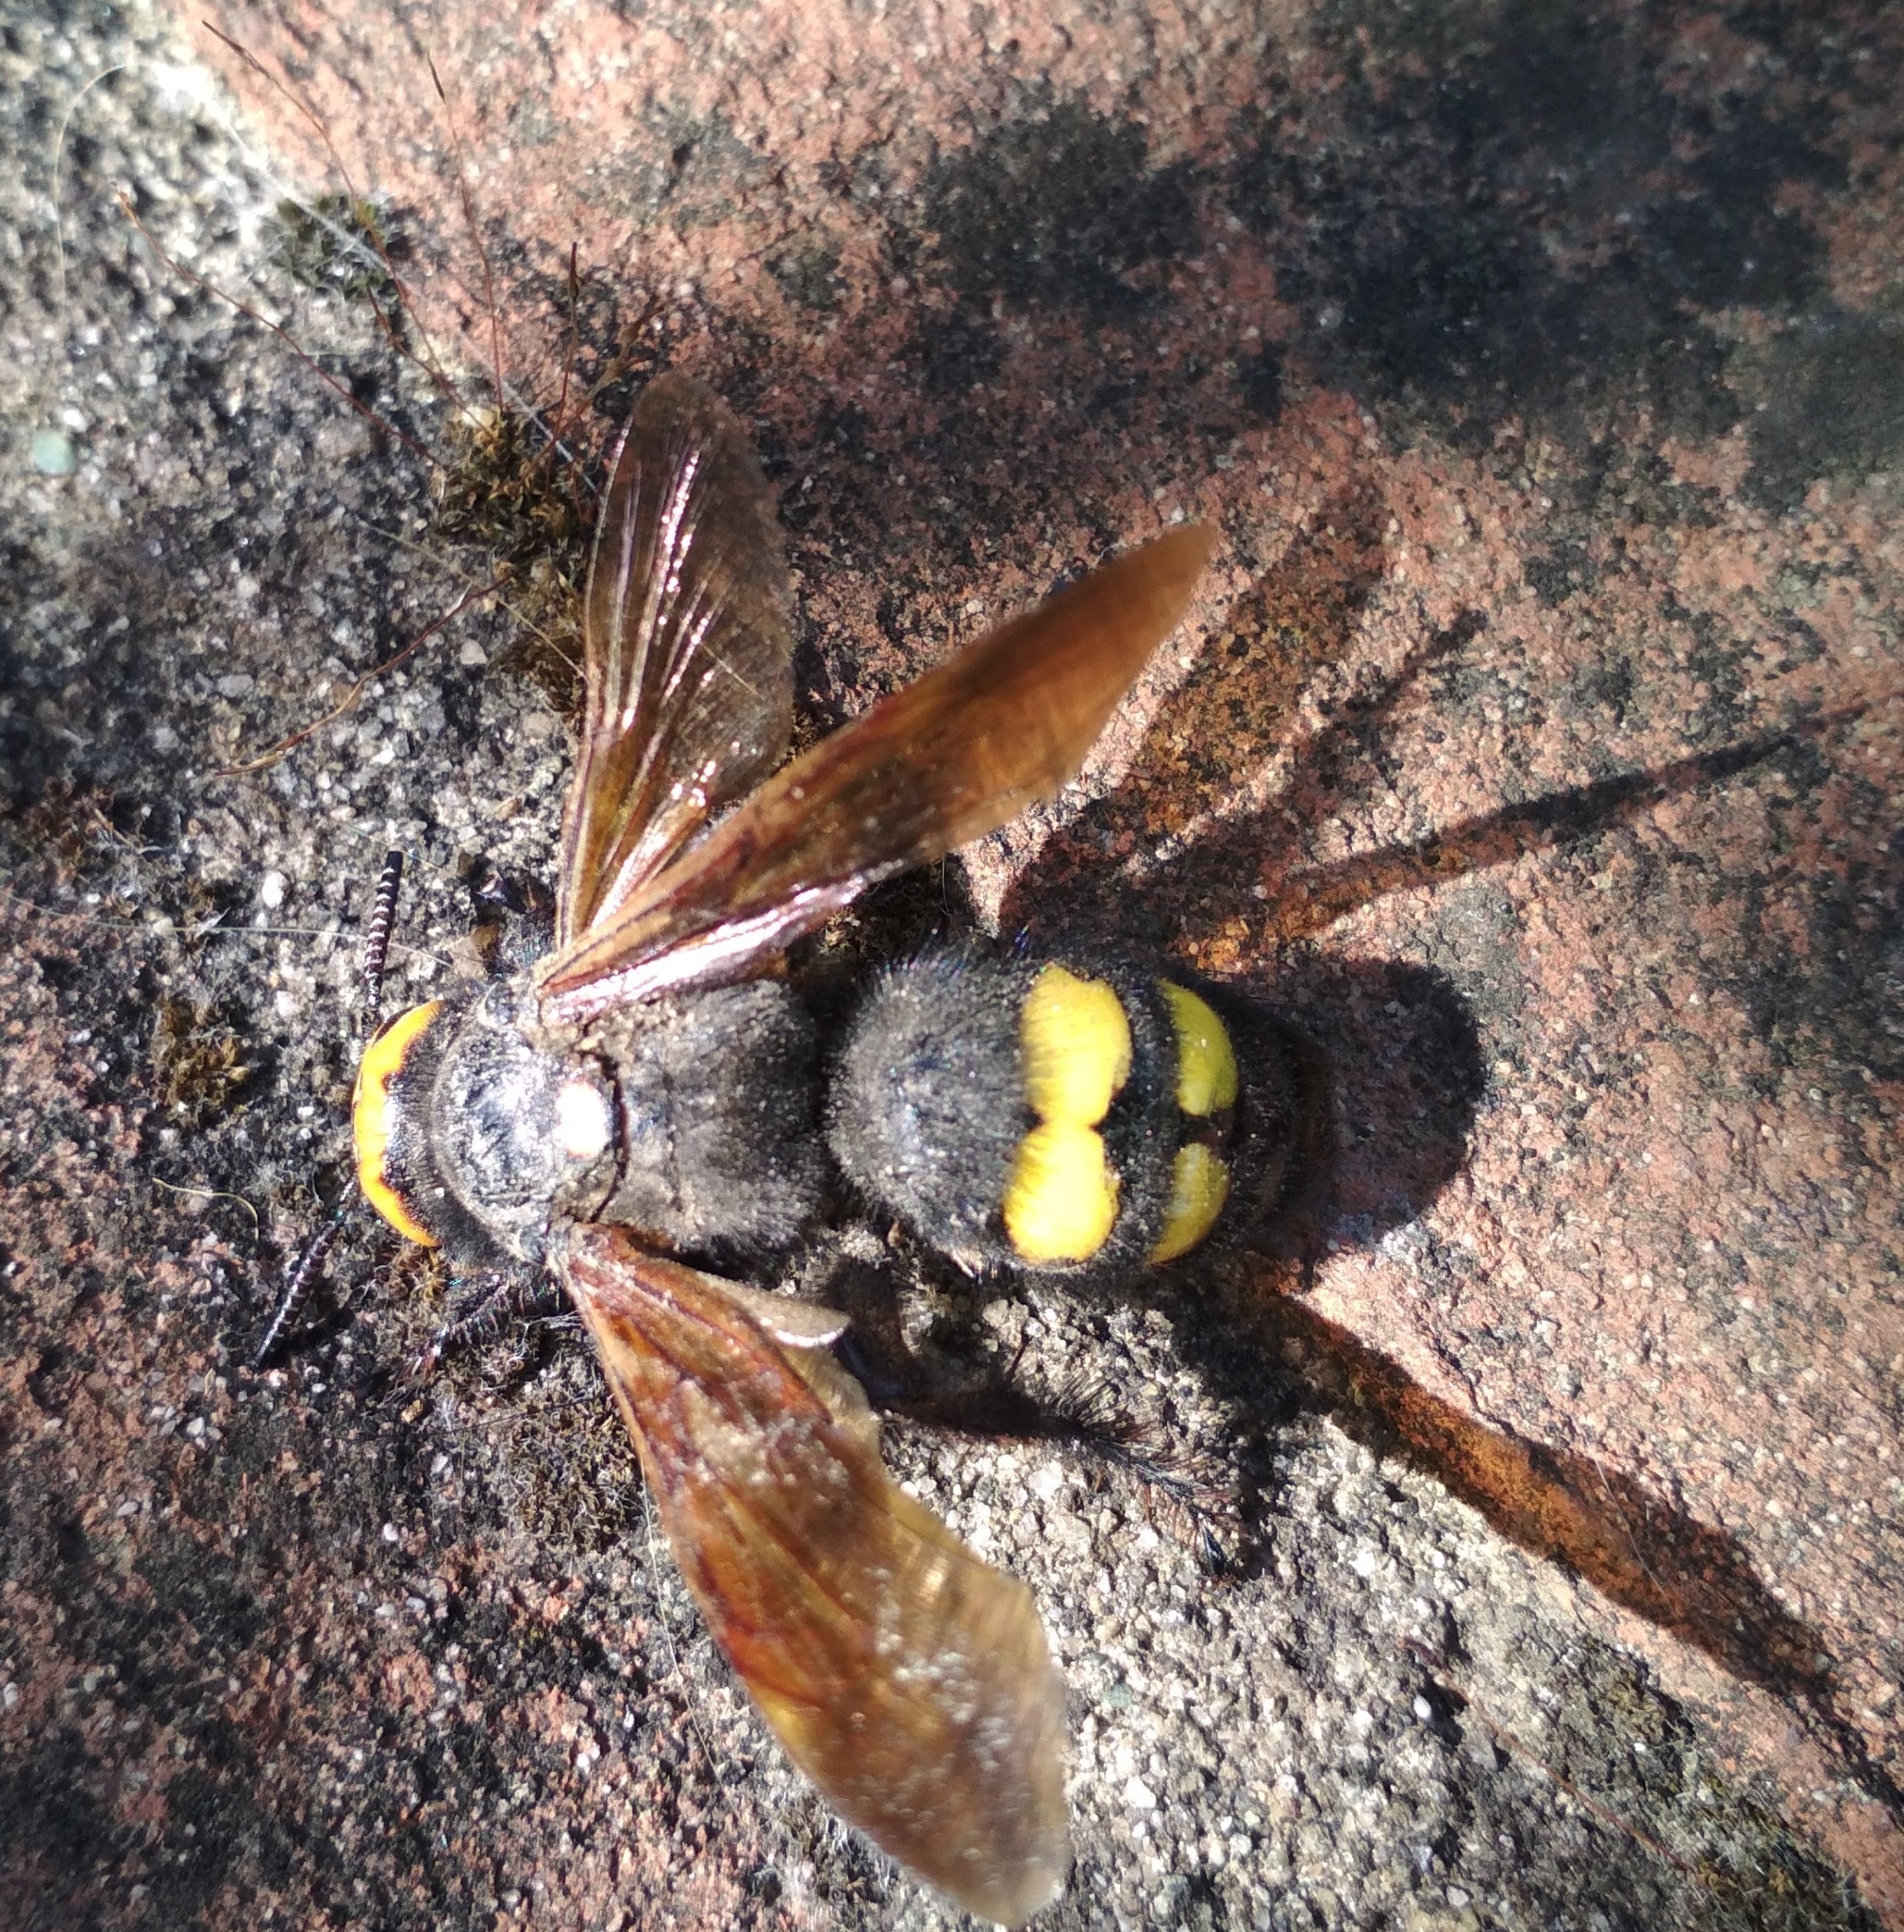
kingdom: Animalia
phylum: Arthropoda
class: Insecta
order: Hymenoptera
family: Scoliidae
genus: Megascolia
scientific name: Megascolia maculata
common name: Mammoth wasp
